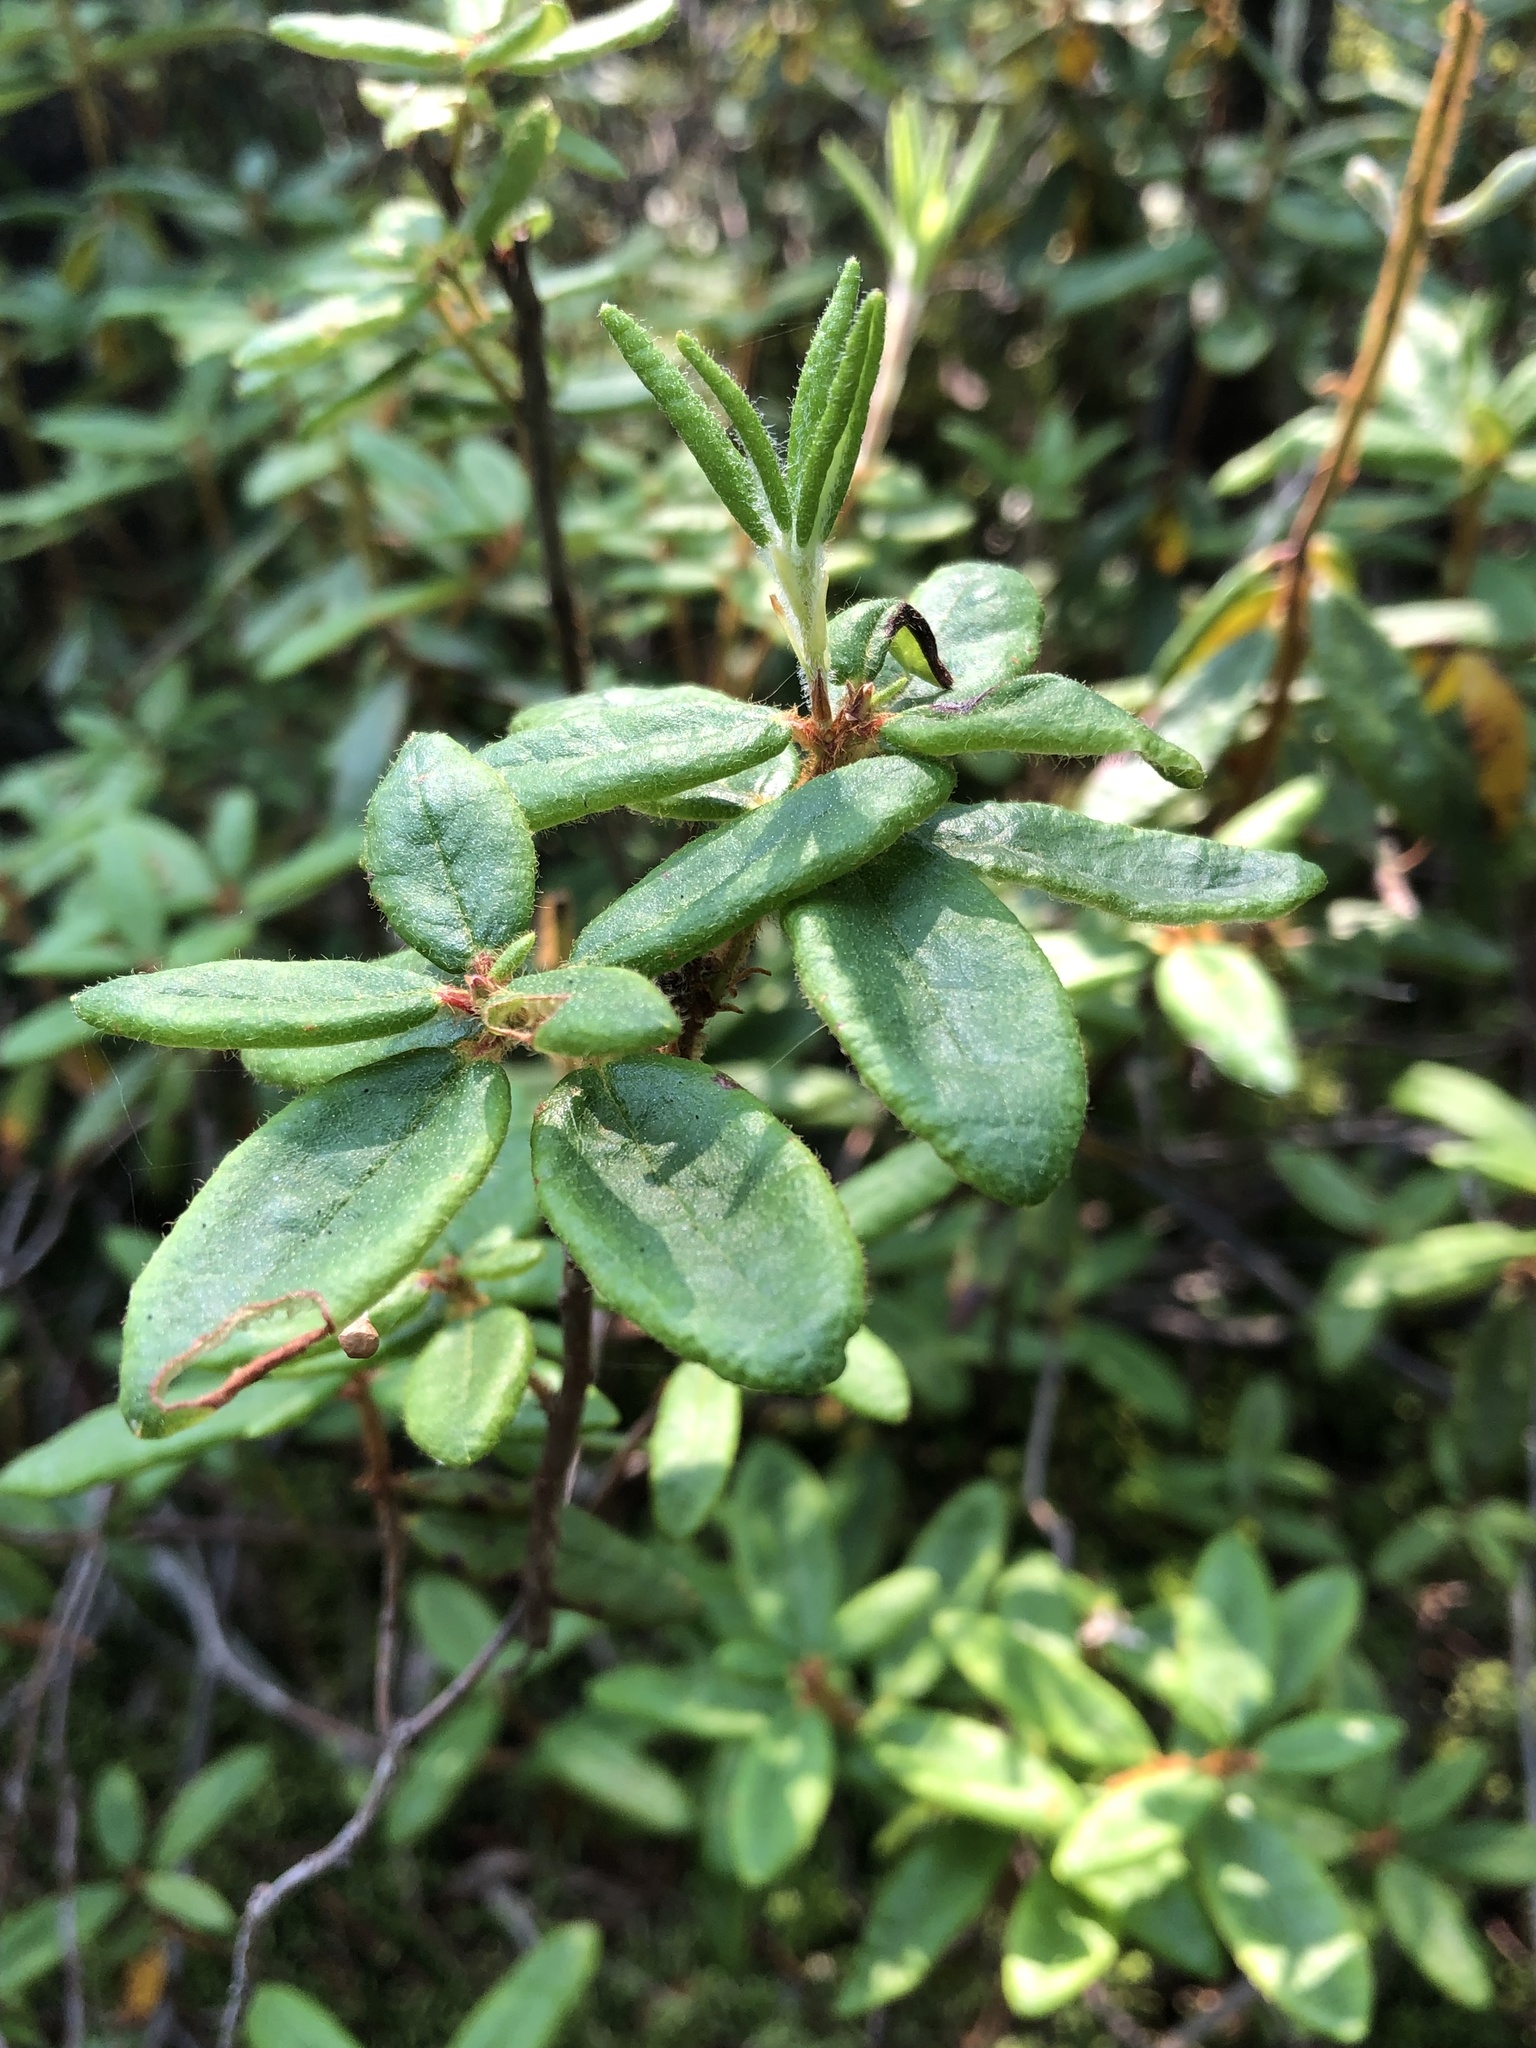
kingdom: Plantae
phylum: Tracheophyta
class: Magnoliopsida
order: Ericales
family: Ericaceae
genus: Rhododendron
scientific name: Rhododendron groenlandicum
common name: Bog labrador tea
